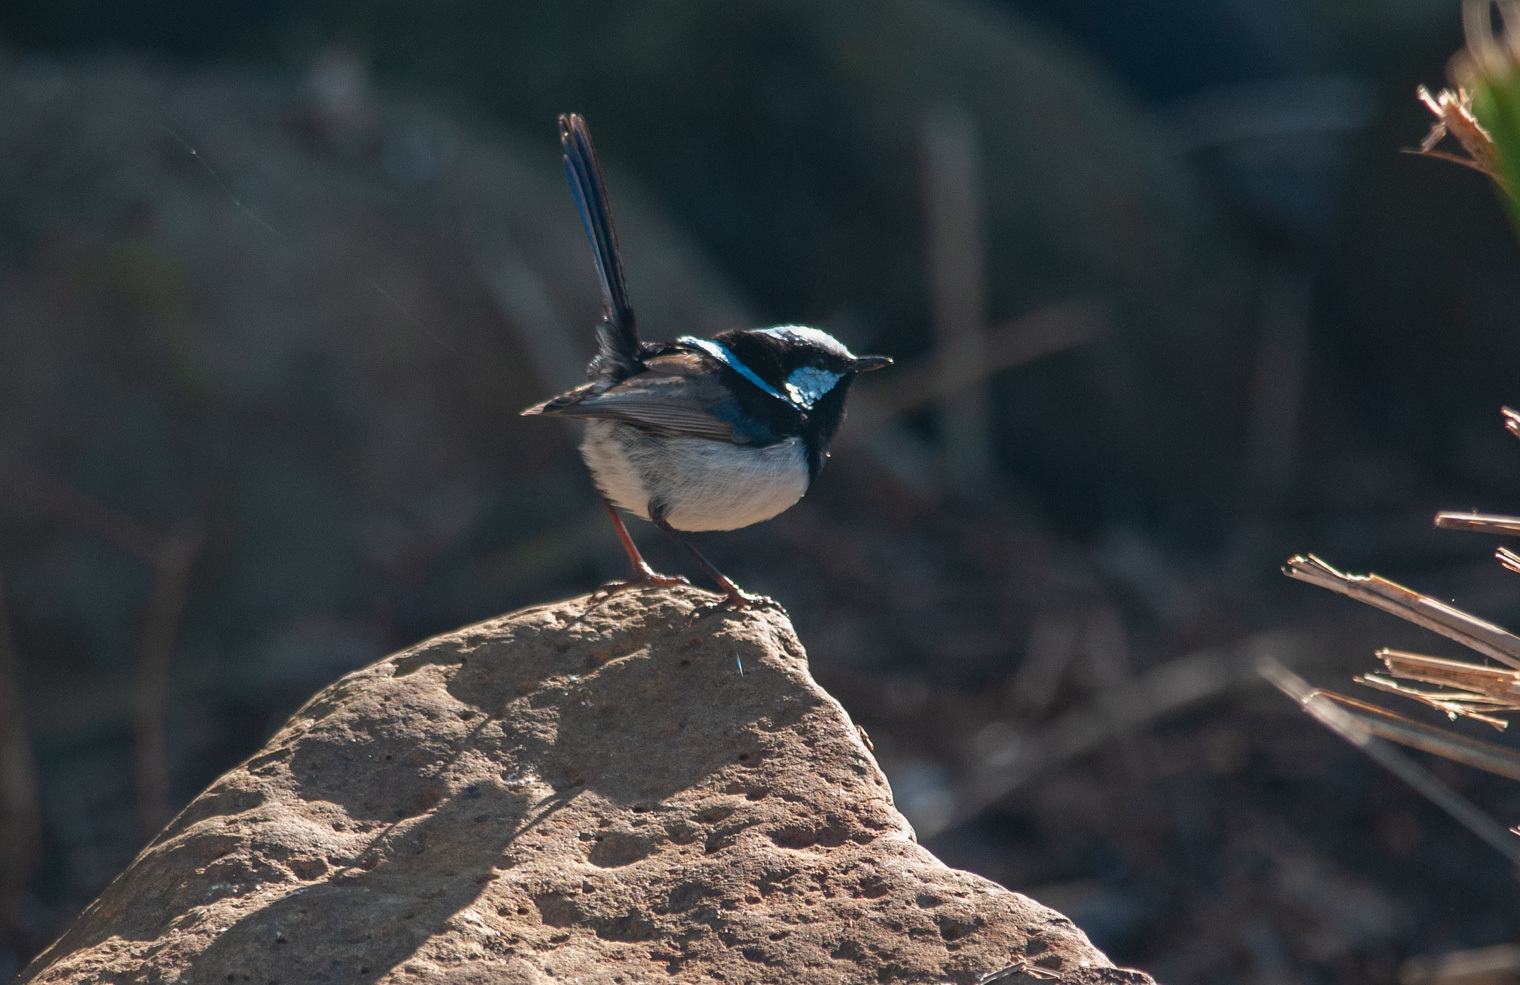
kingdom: Animalia
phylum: Chordata
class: Aves
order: Passeriformes
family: Maluridae
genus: Malurus
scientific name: Malurus cyaneus
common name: Superb fairywren
